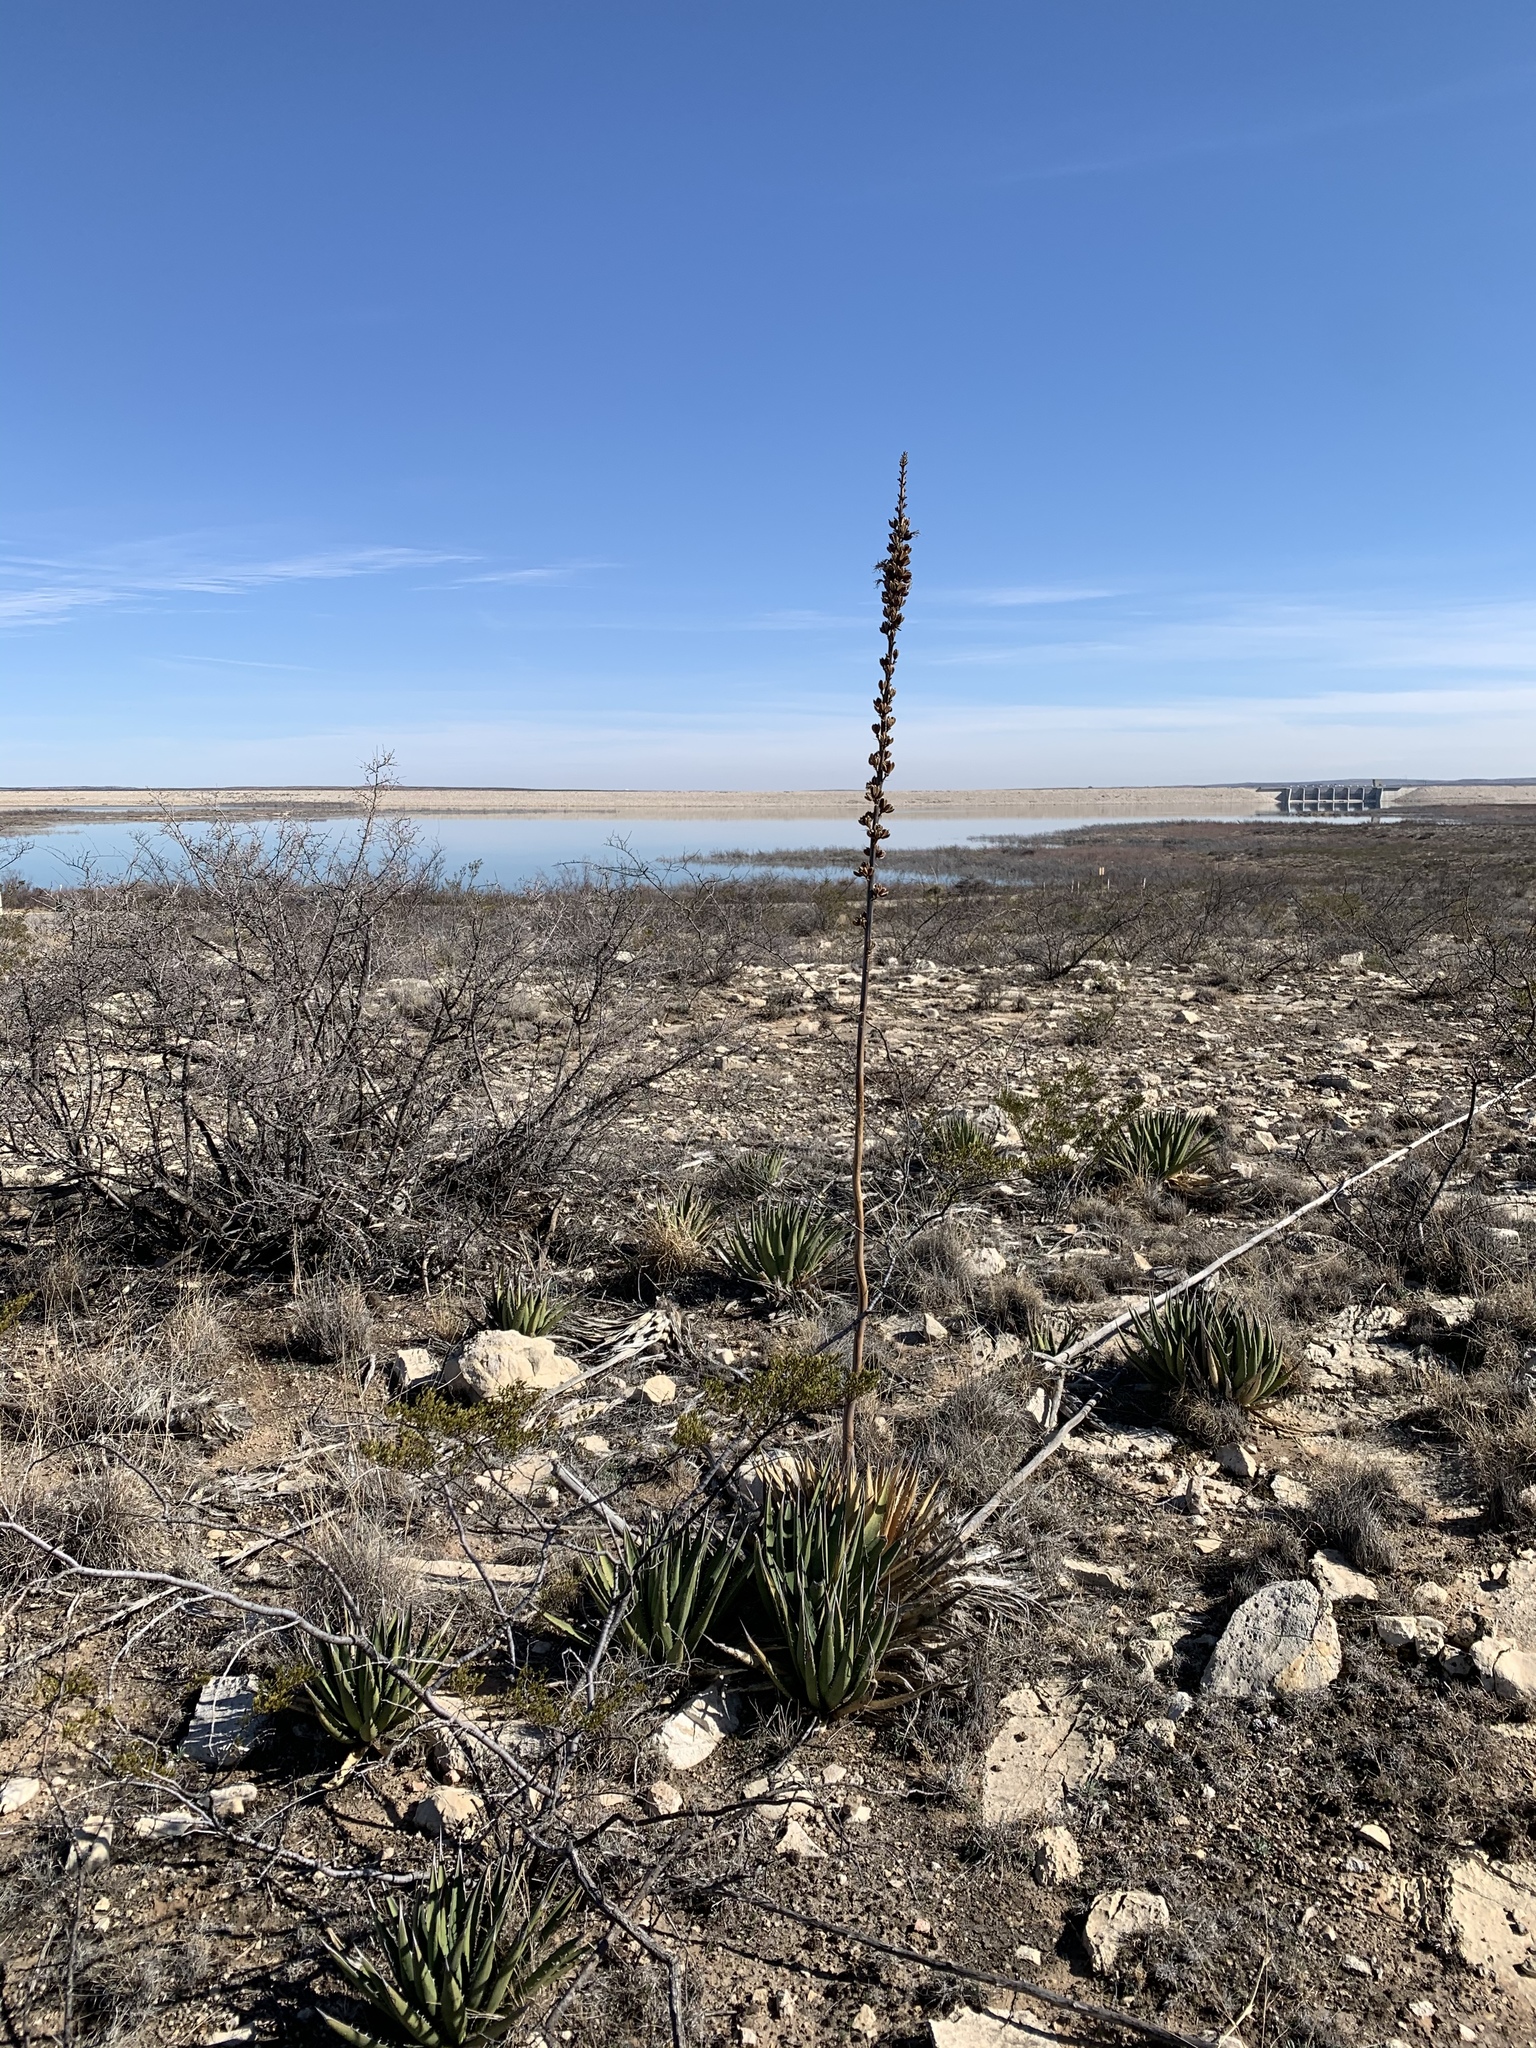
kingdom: Plantae
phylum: Tracheophyta
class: Liliopsida
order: Asparagales
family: Asparagaceae
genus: Agave
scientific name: Agave lechuguilla
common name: Lecheguilla agave
